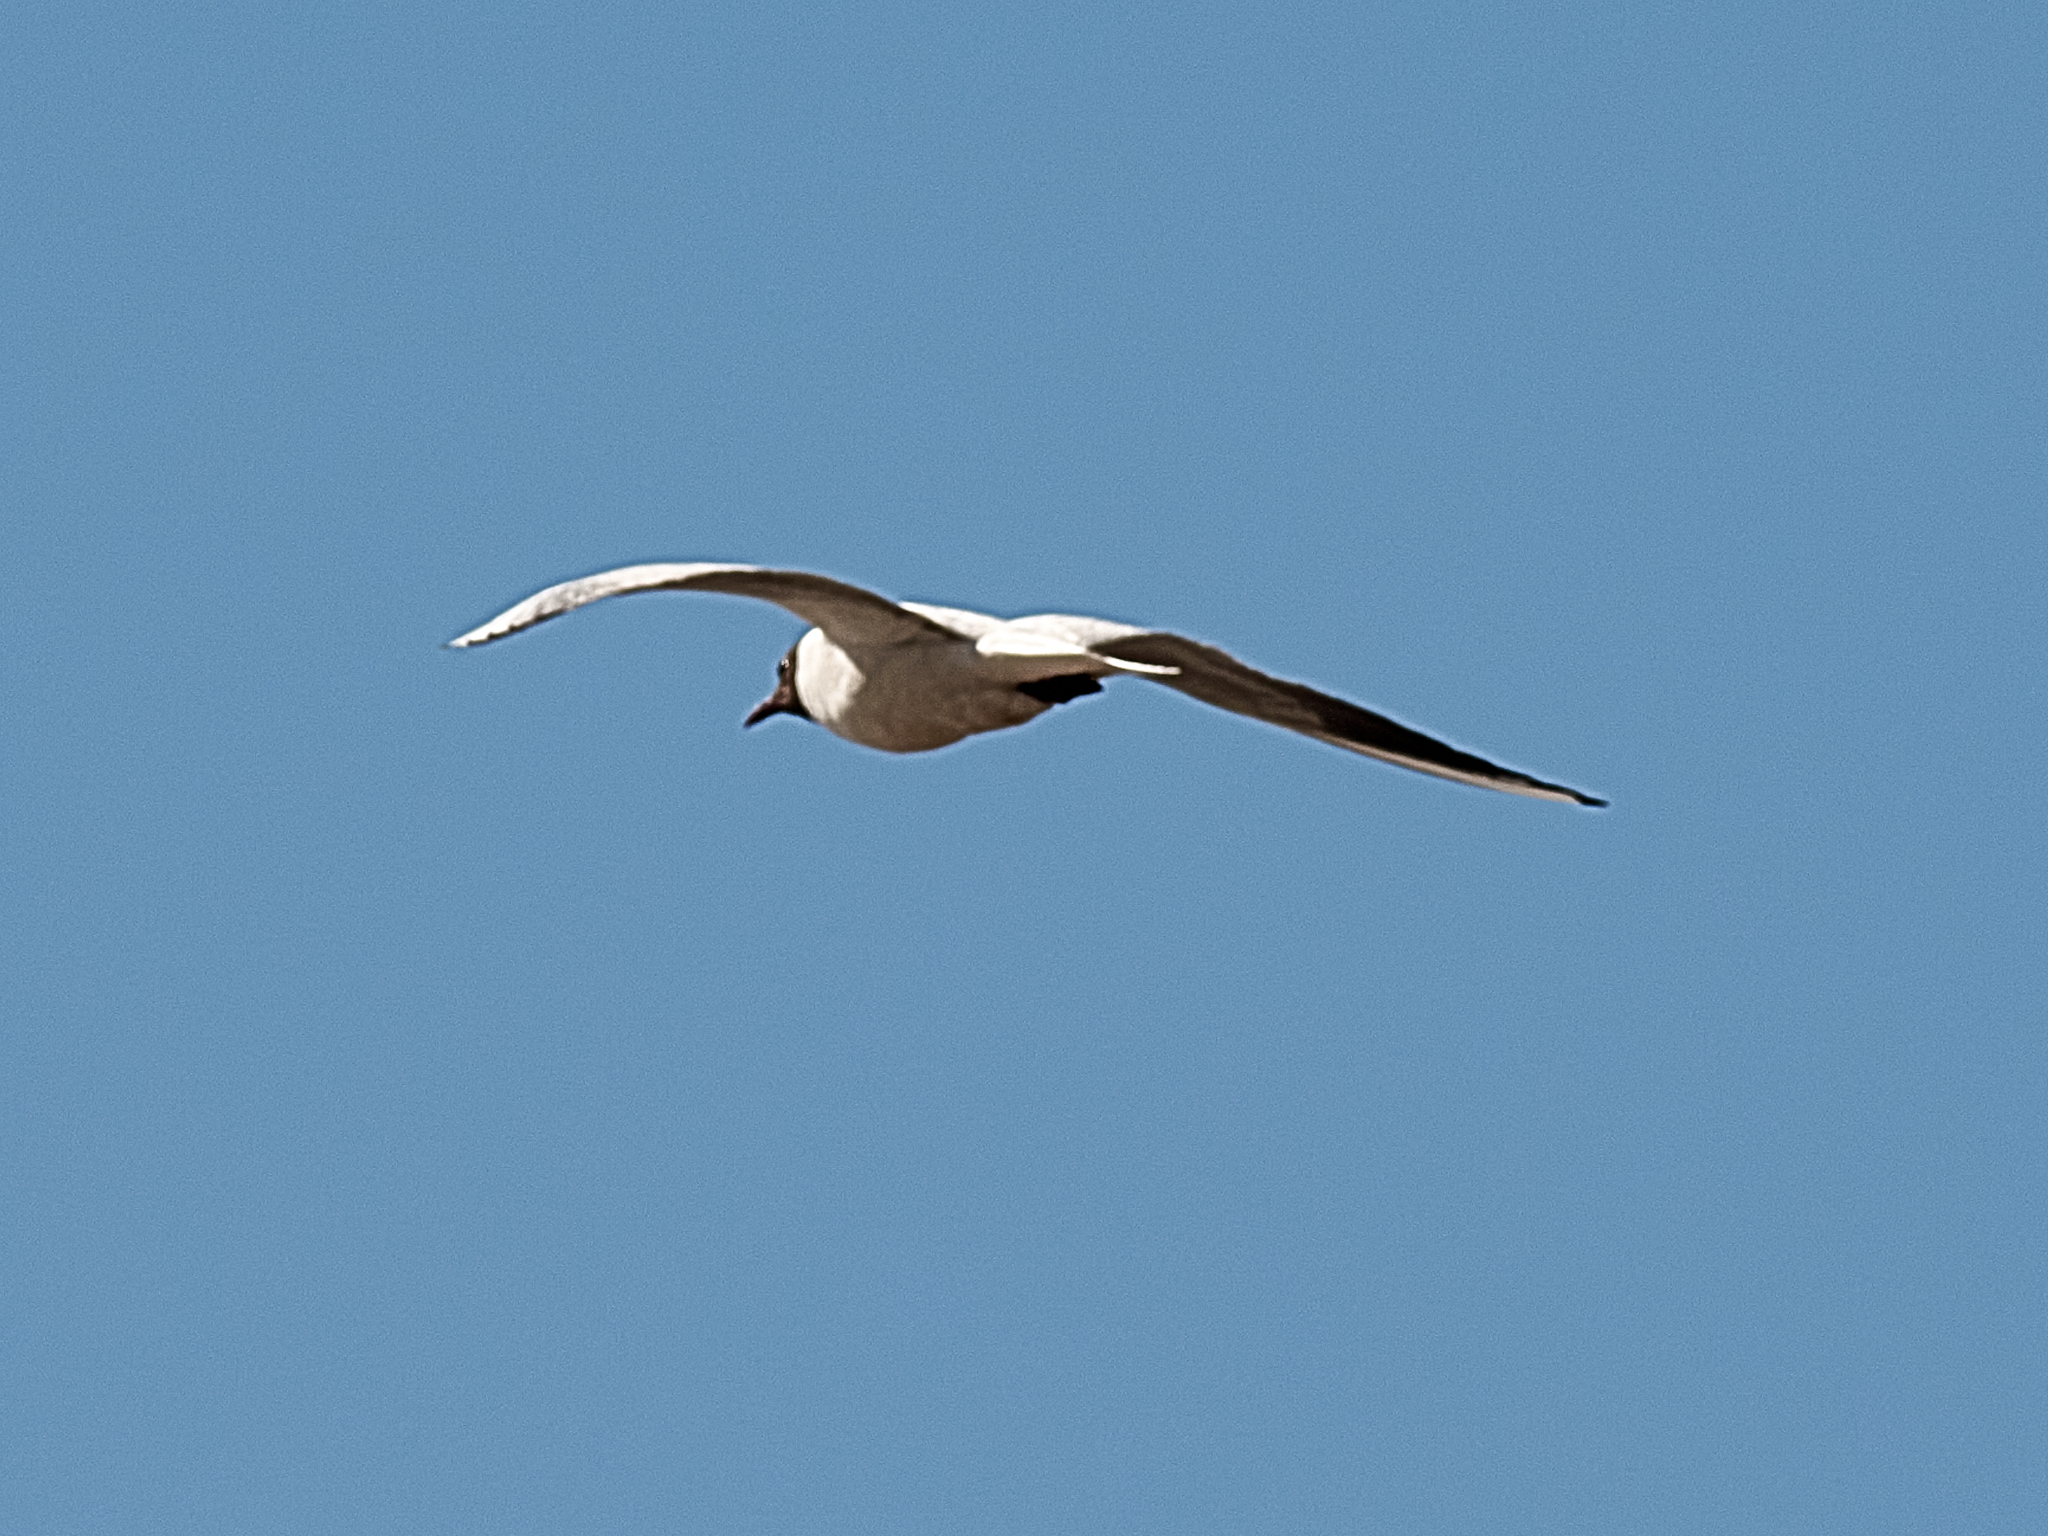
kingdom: Animalia
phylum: Chordata
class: Aves
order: Charadriiformes
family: Laridae
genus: Chroicocephalus
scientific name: Chroicocephalus ridibundus
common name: Black-headed gull
